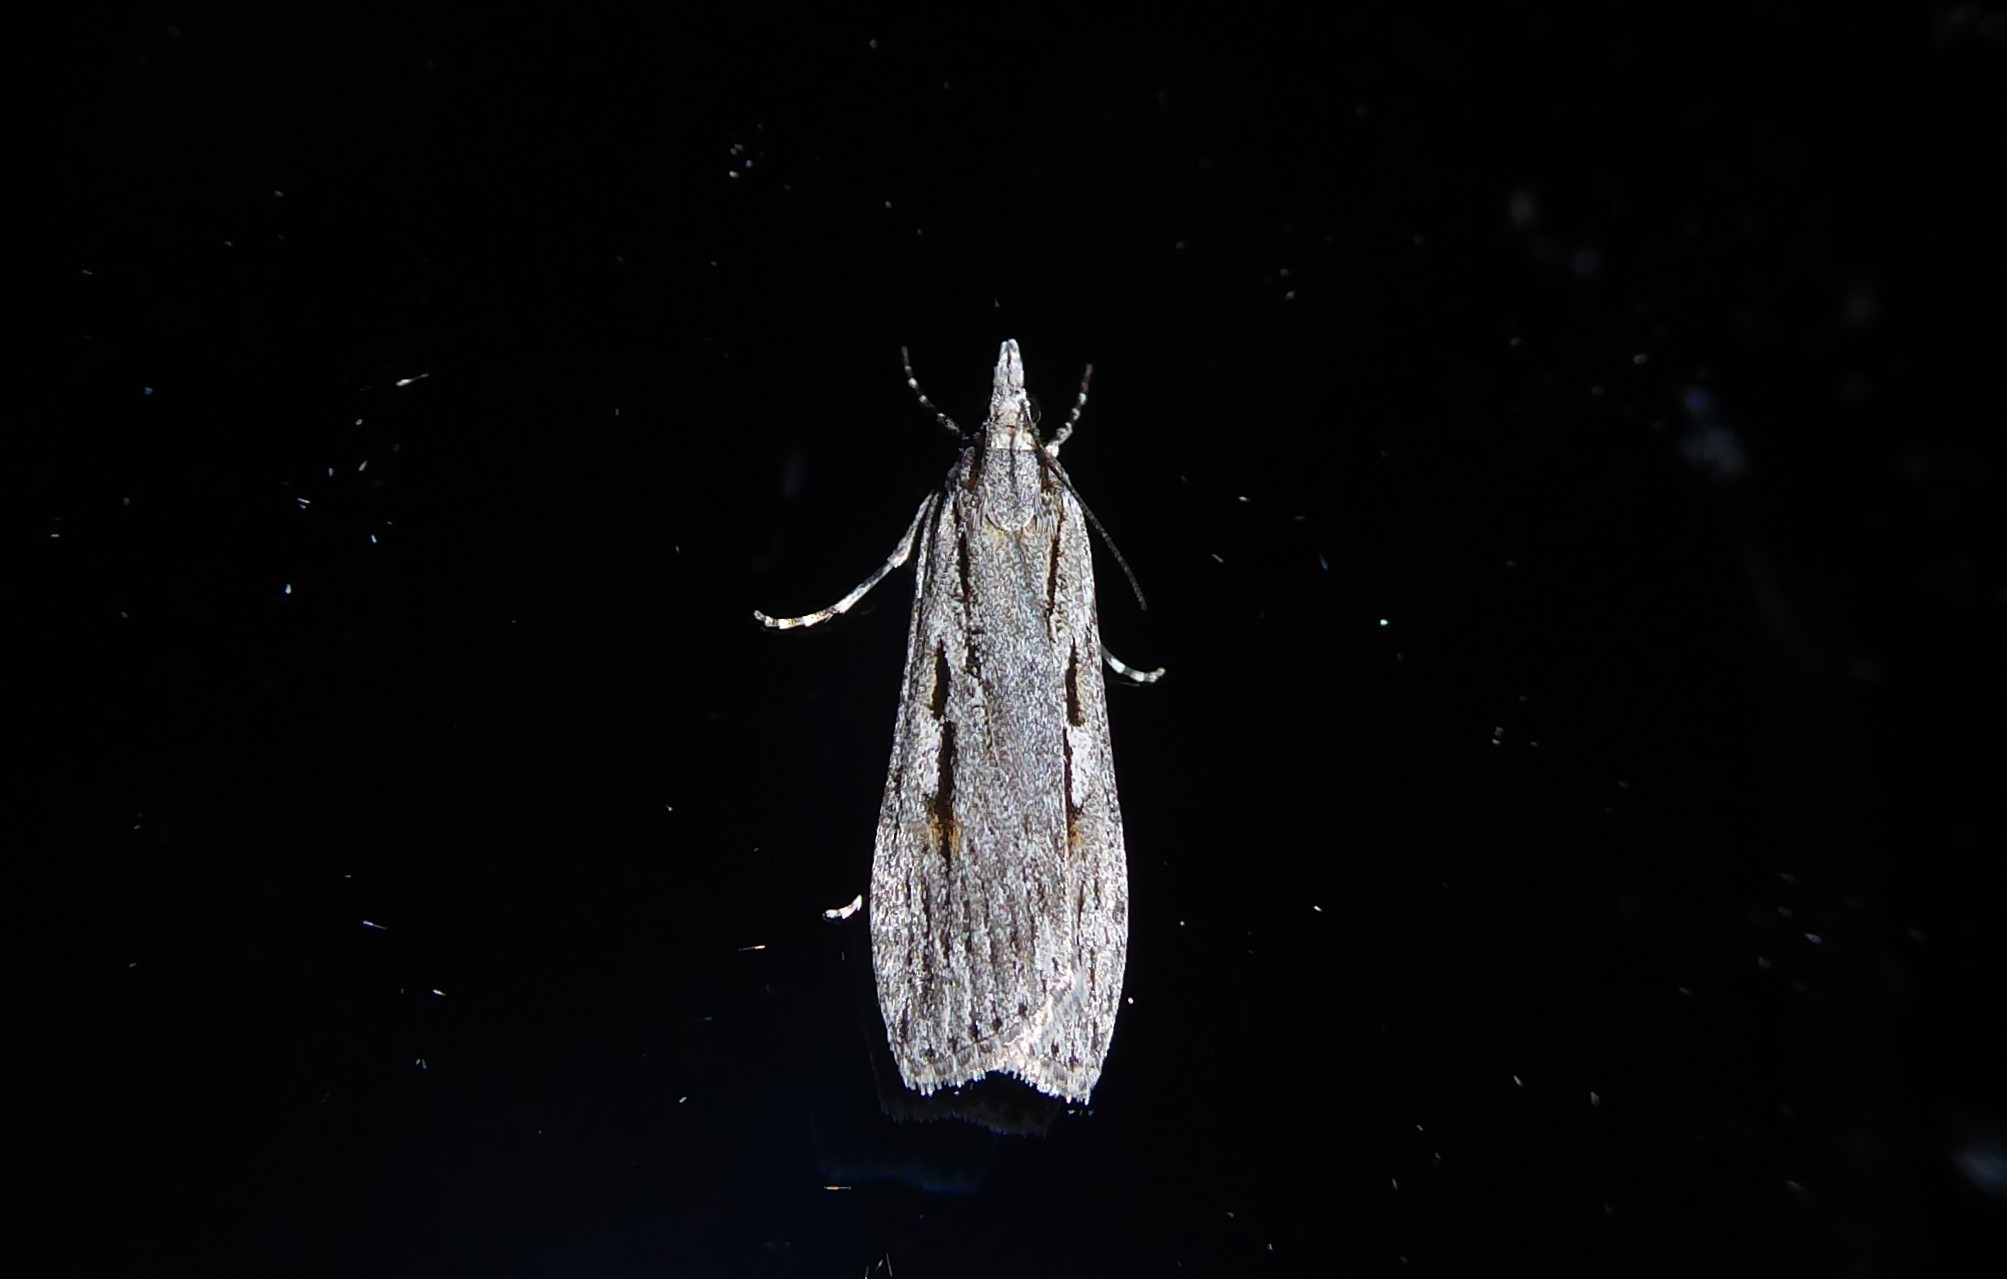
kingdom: Animalia
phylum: Arthropoda
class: Insecta
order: Lepidoptera
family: Crambidae
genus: Scoparia
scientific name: Scoparia indistinctalis
